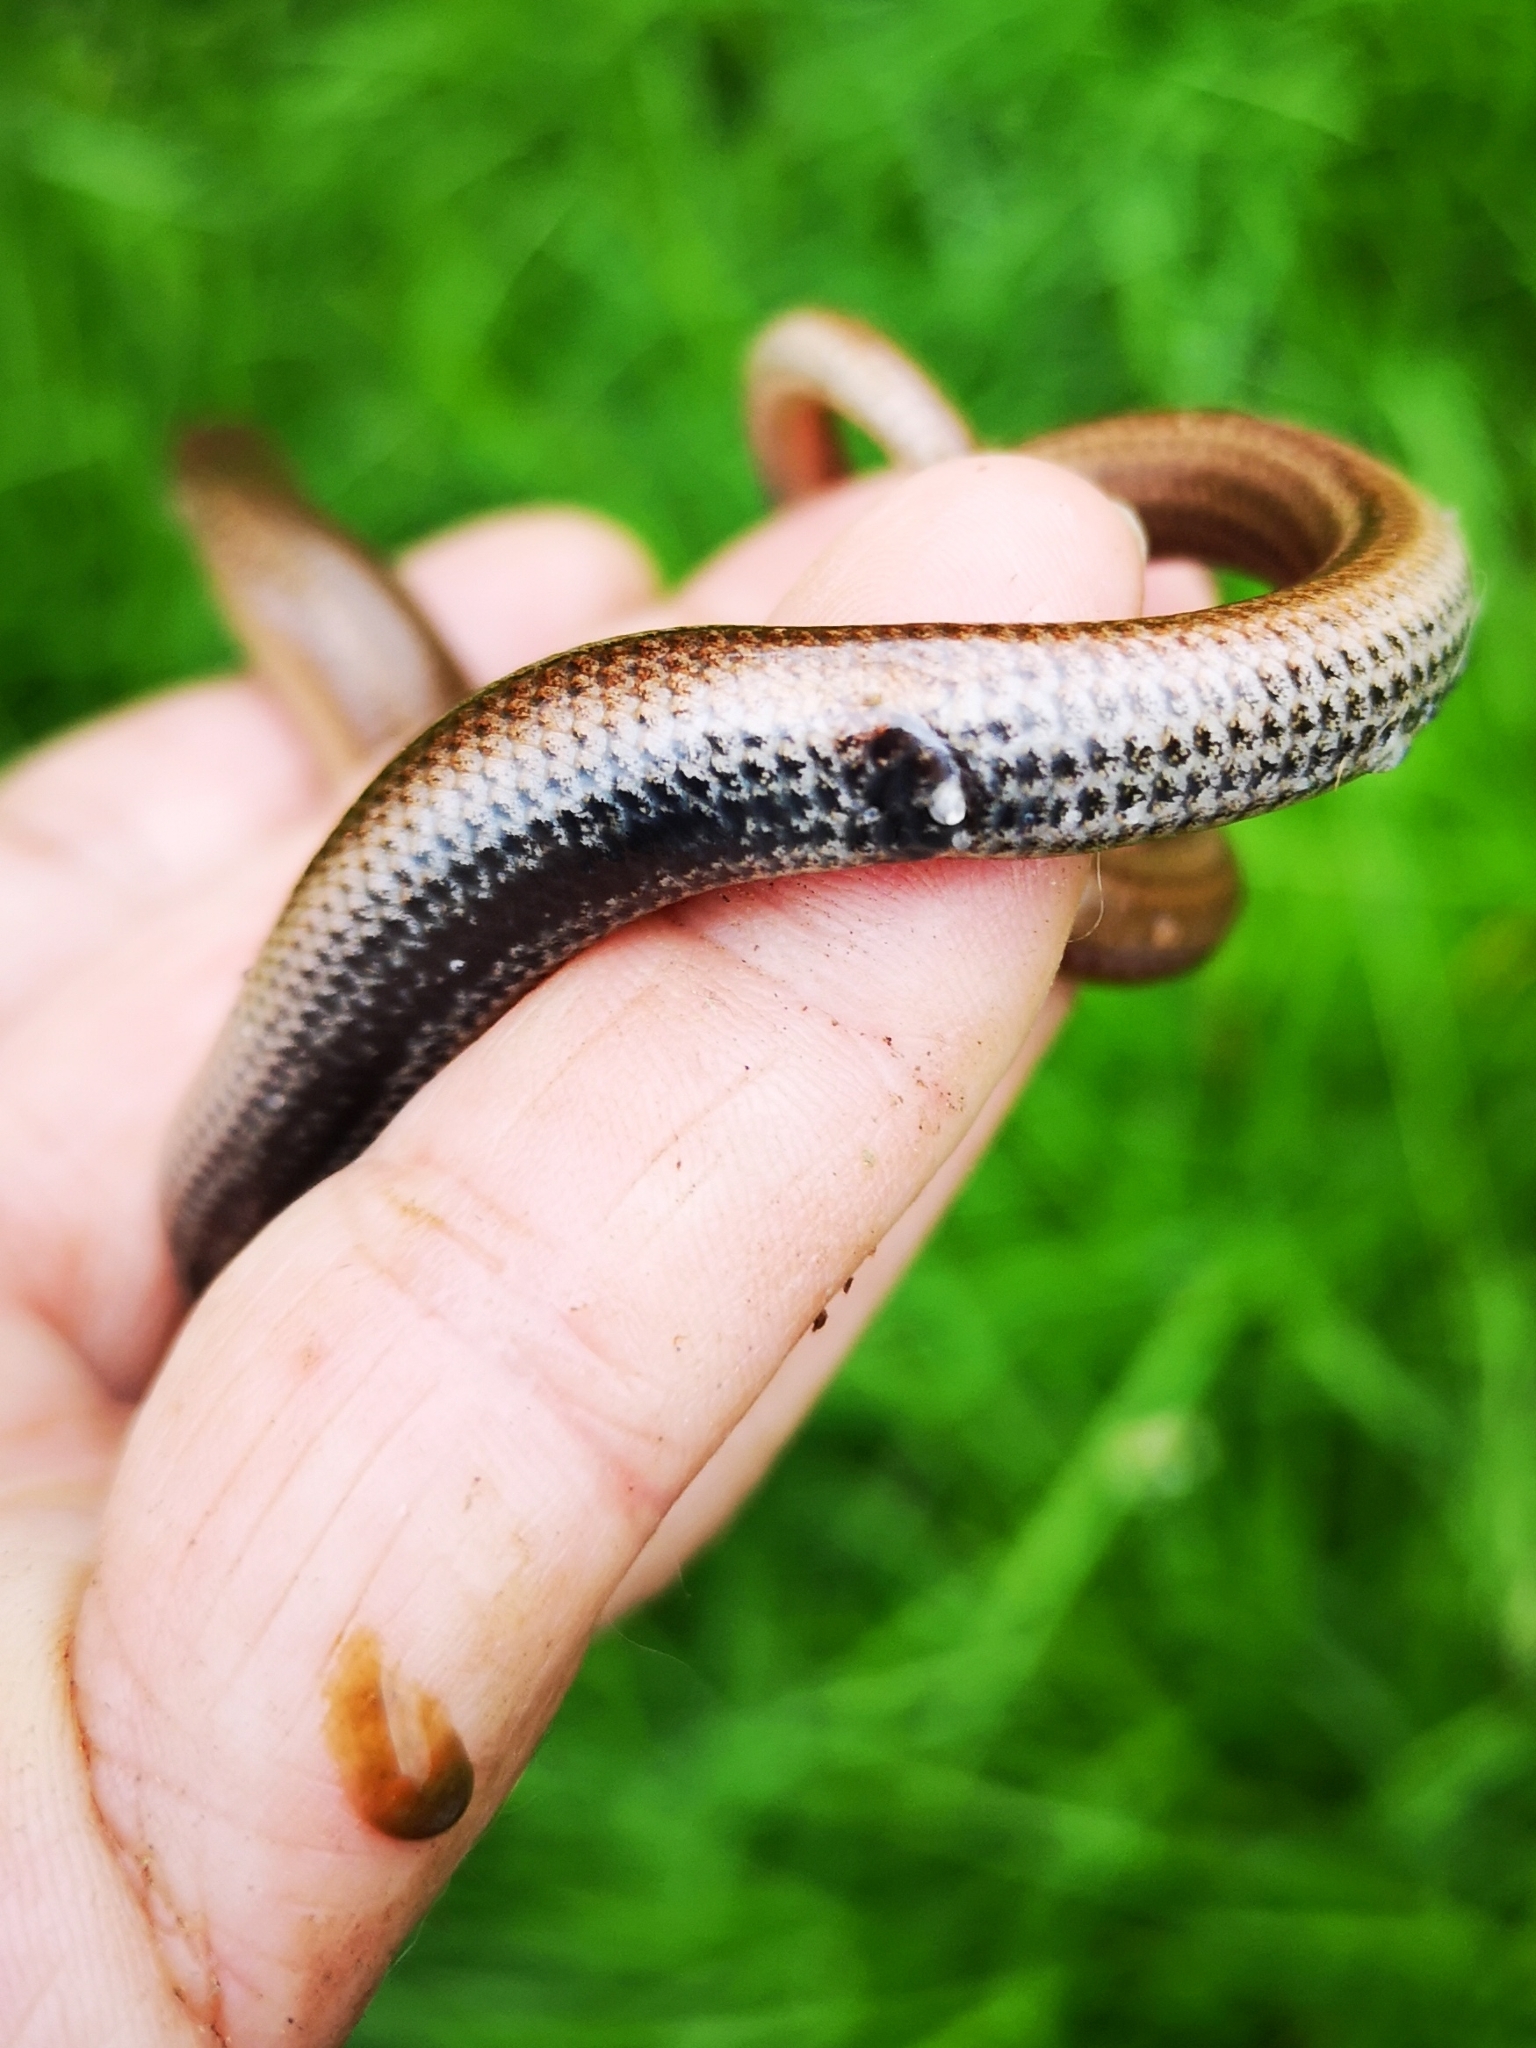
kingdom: Animalia
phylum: Chordata
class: Squamata
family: Anguidae
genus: Anguis
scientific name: Anguis
